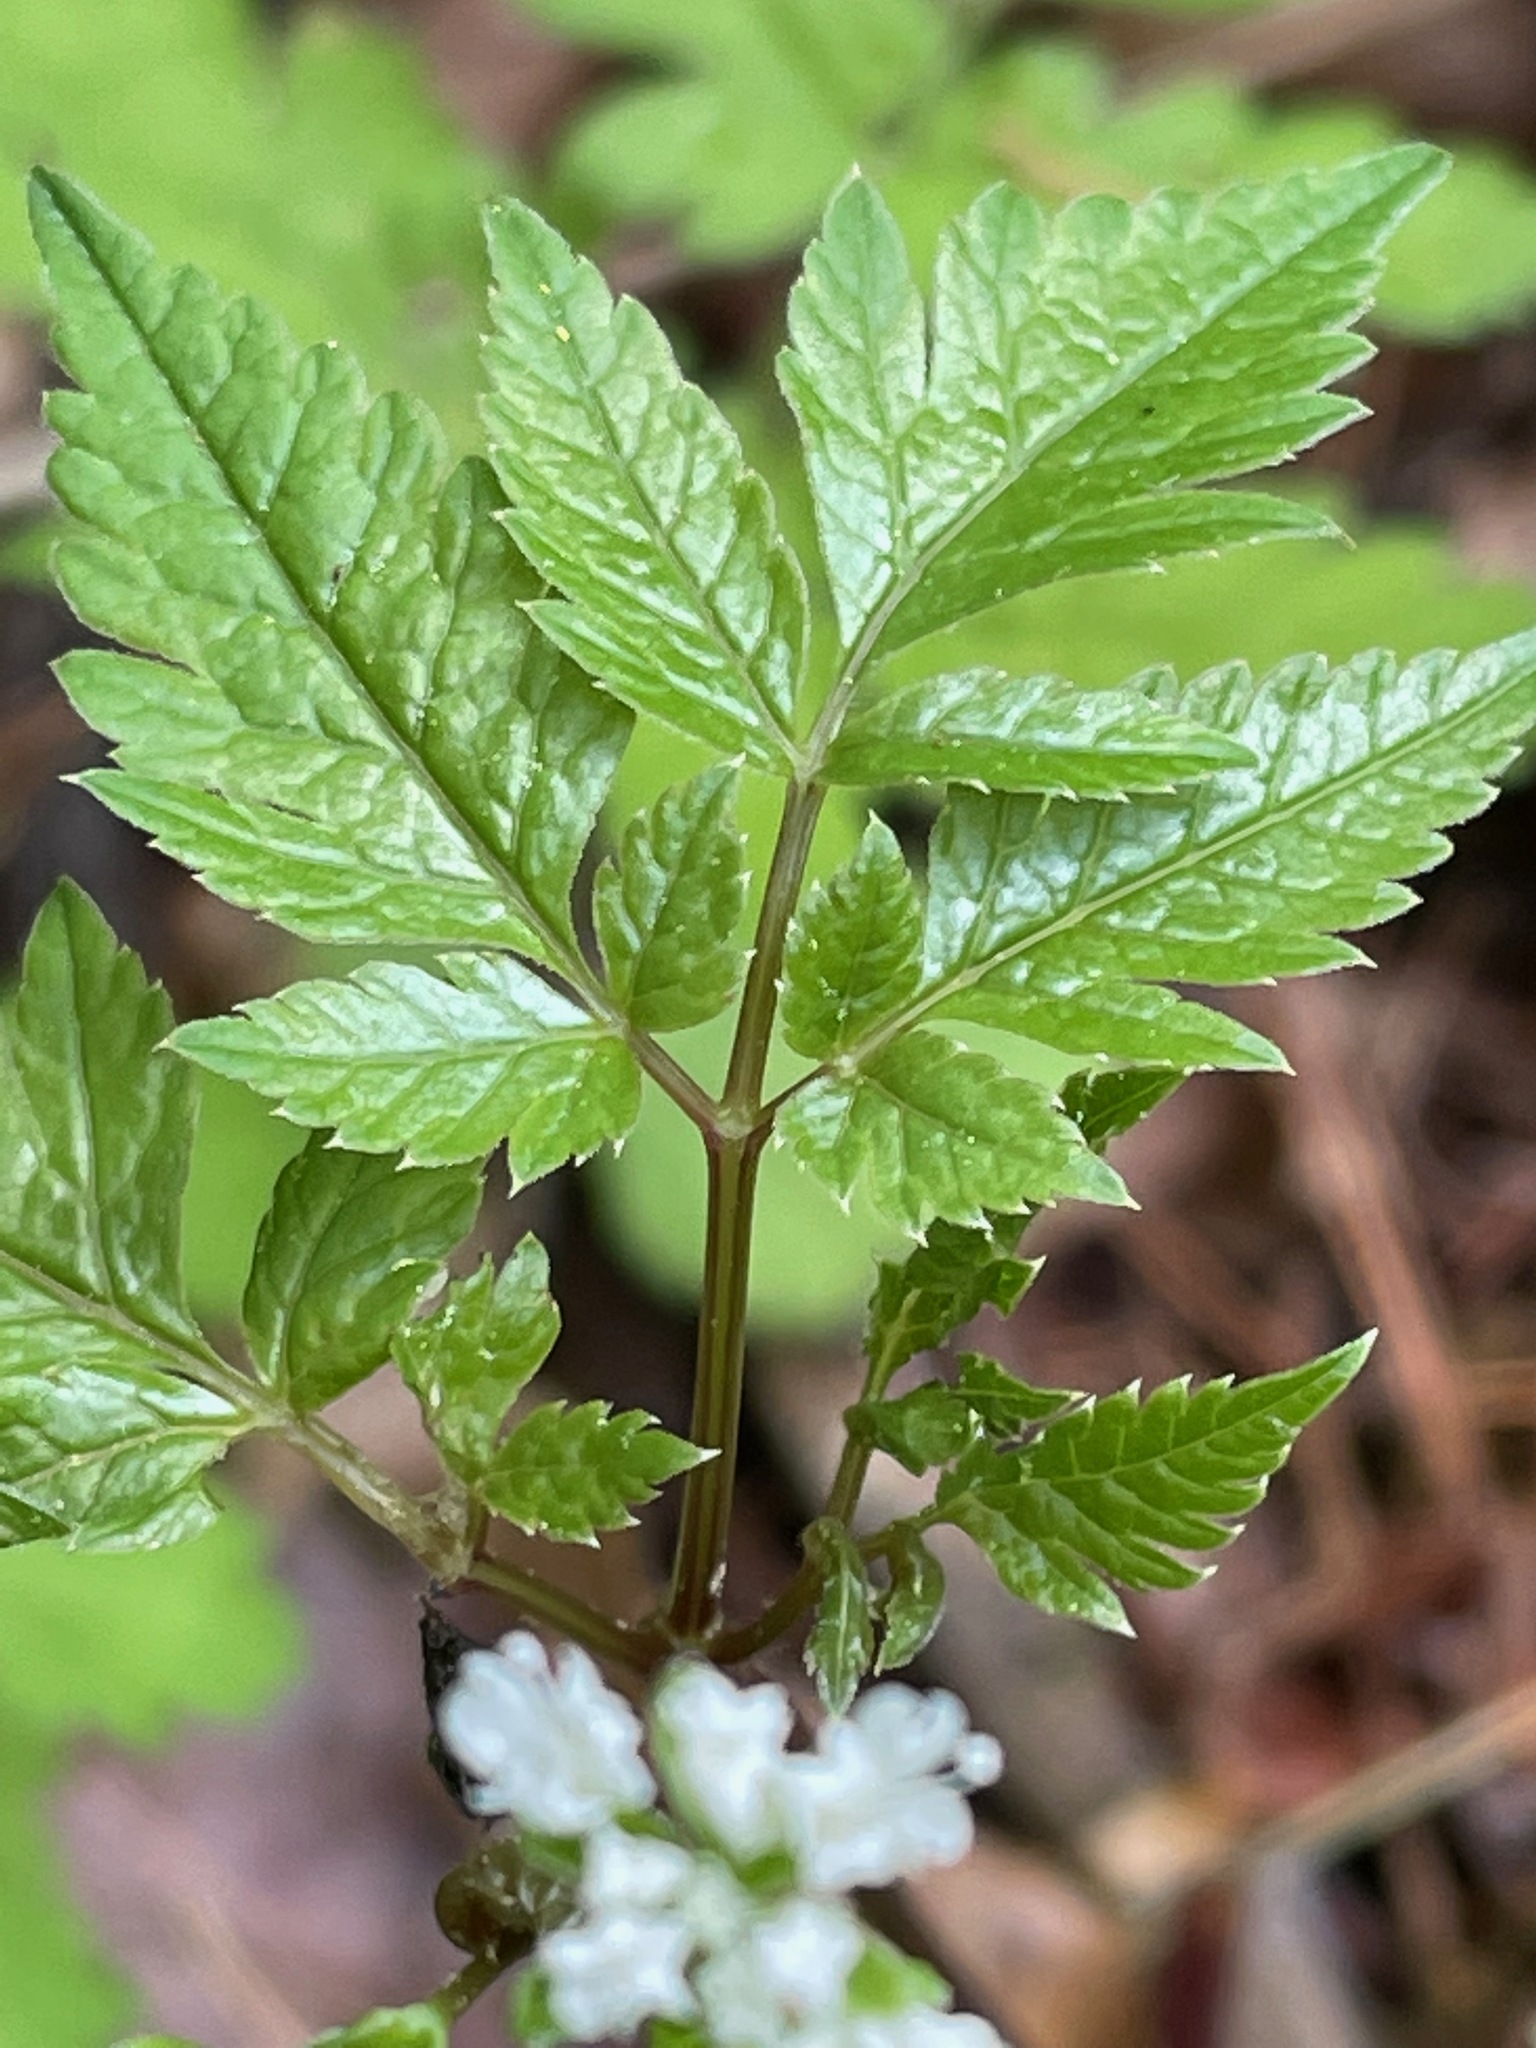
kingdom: Plantae
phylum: Tracheophyta
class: Magnoliopsida
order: Apiales
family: Apiaceae
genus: Osmorhiza
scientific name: Osmorhiza longistylis
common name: Smooth sweet cicely
